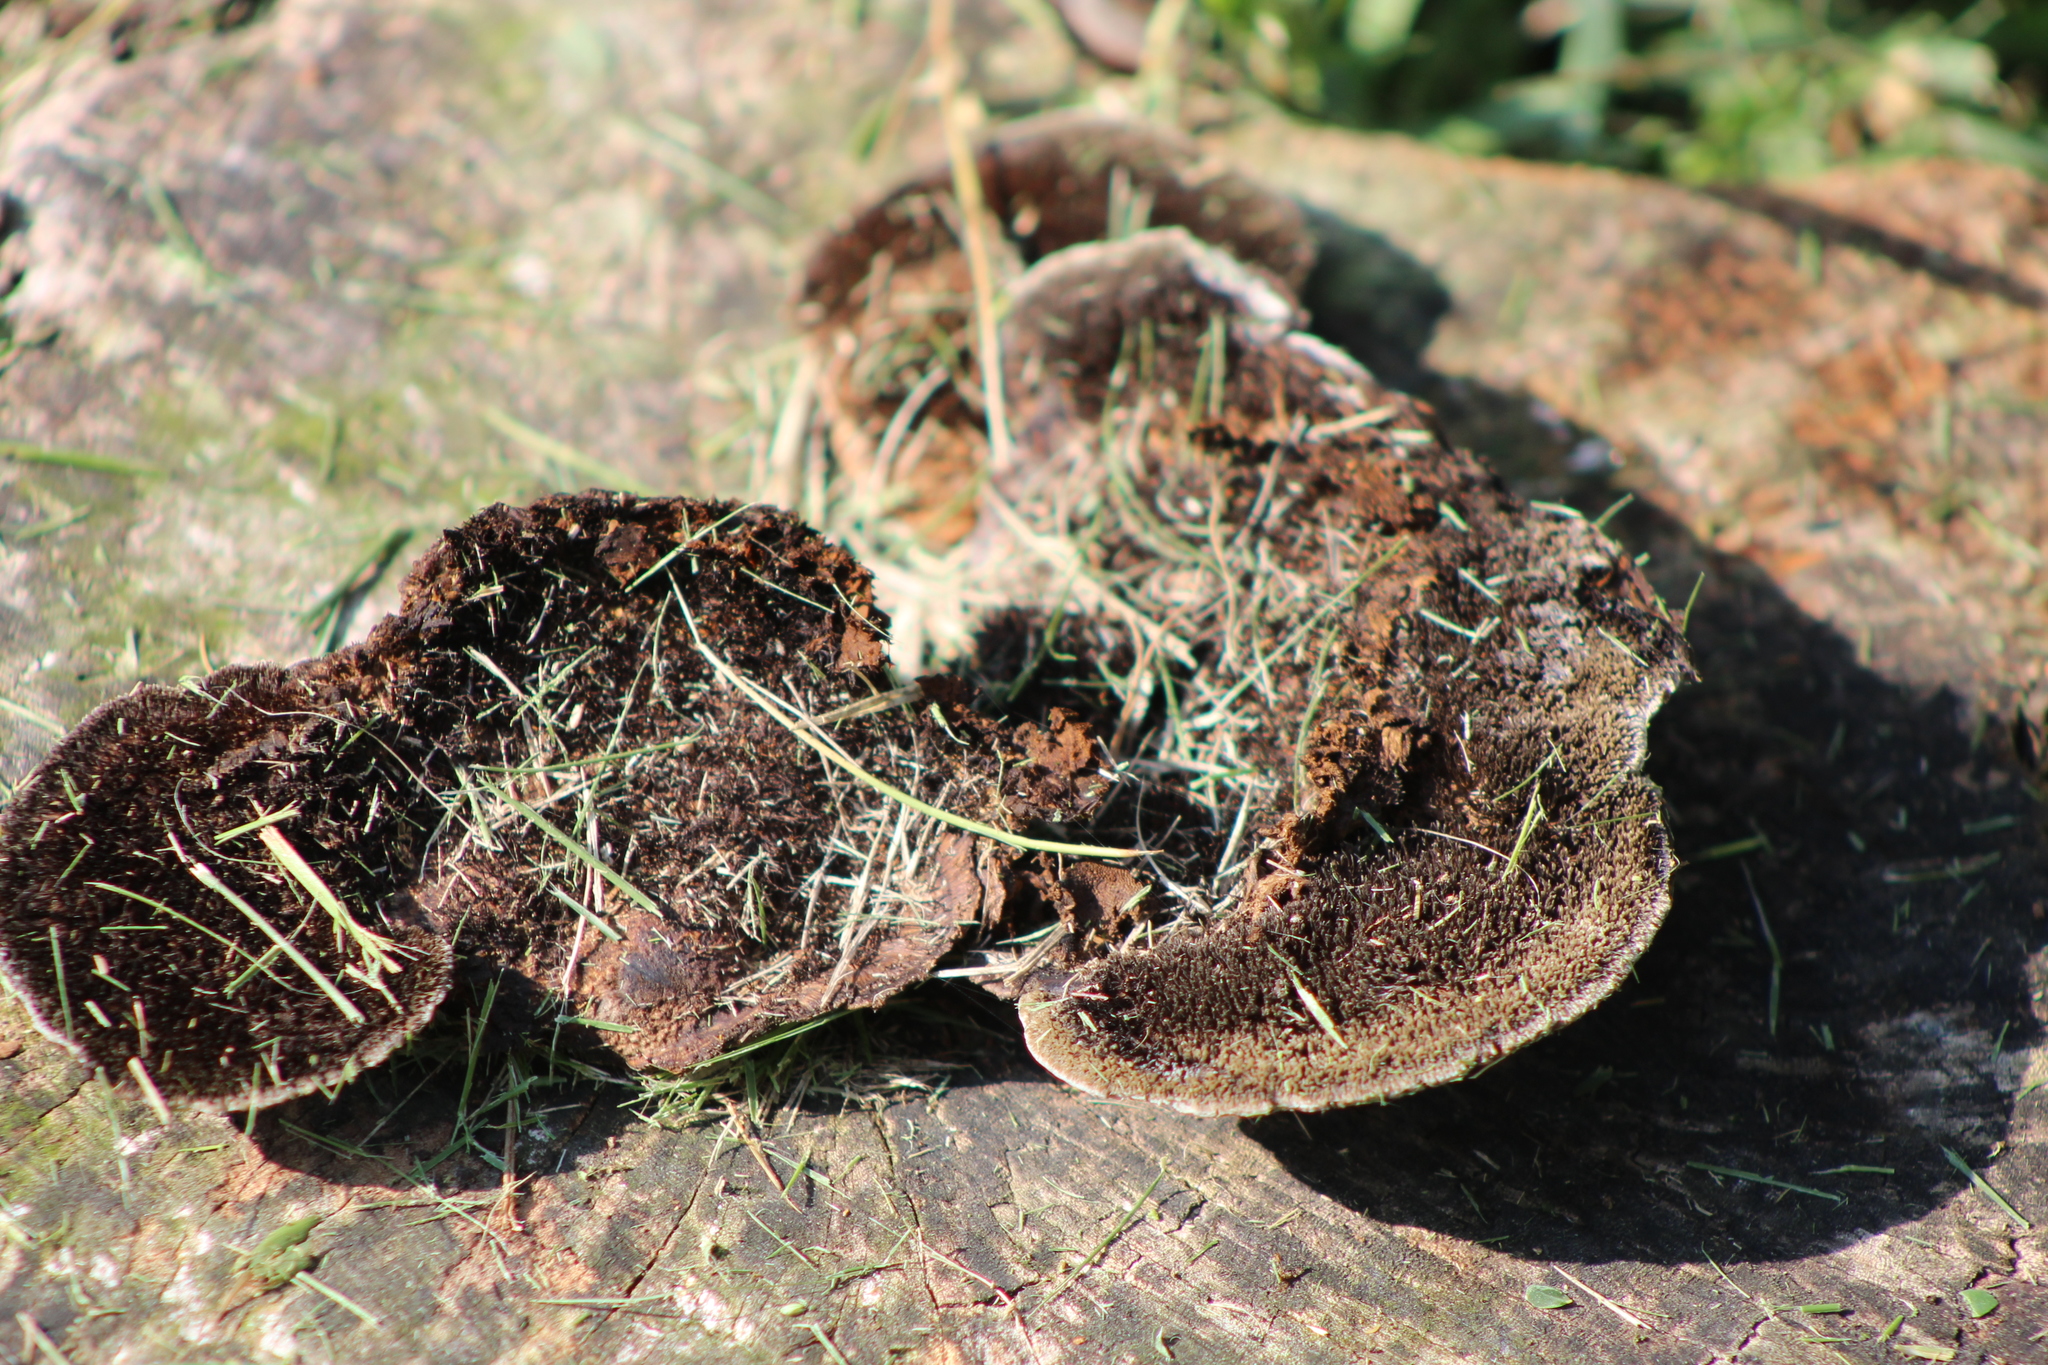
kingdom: Fungi
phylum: Basidiomycota
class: Agaricomycetes
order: Polyporales
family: Cerrenaceae
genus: Cerrena
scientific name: Cerrena hydnoides
